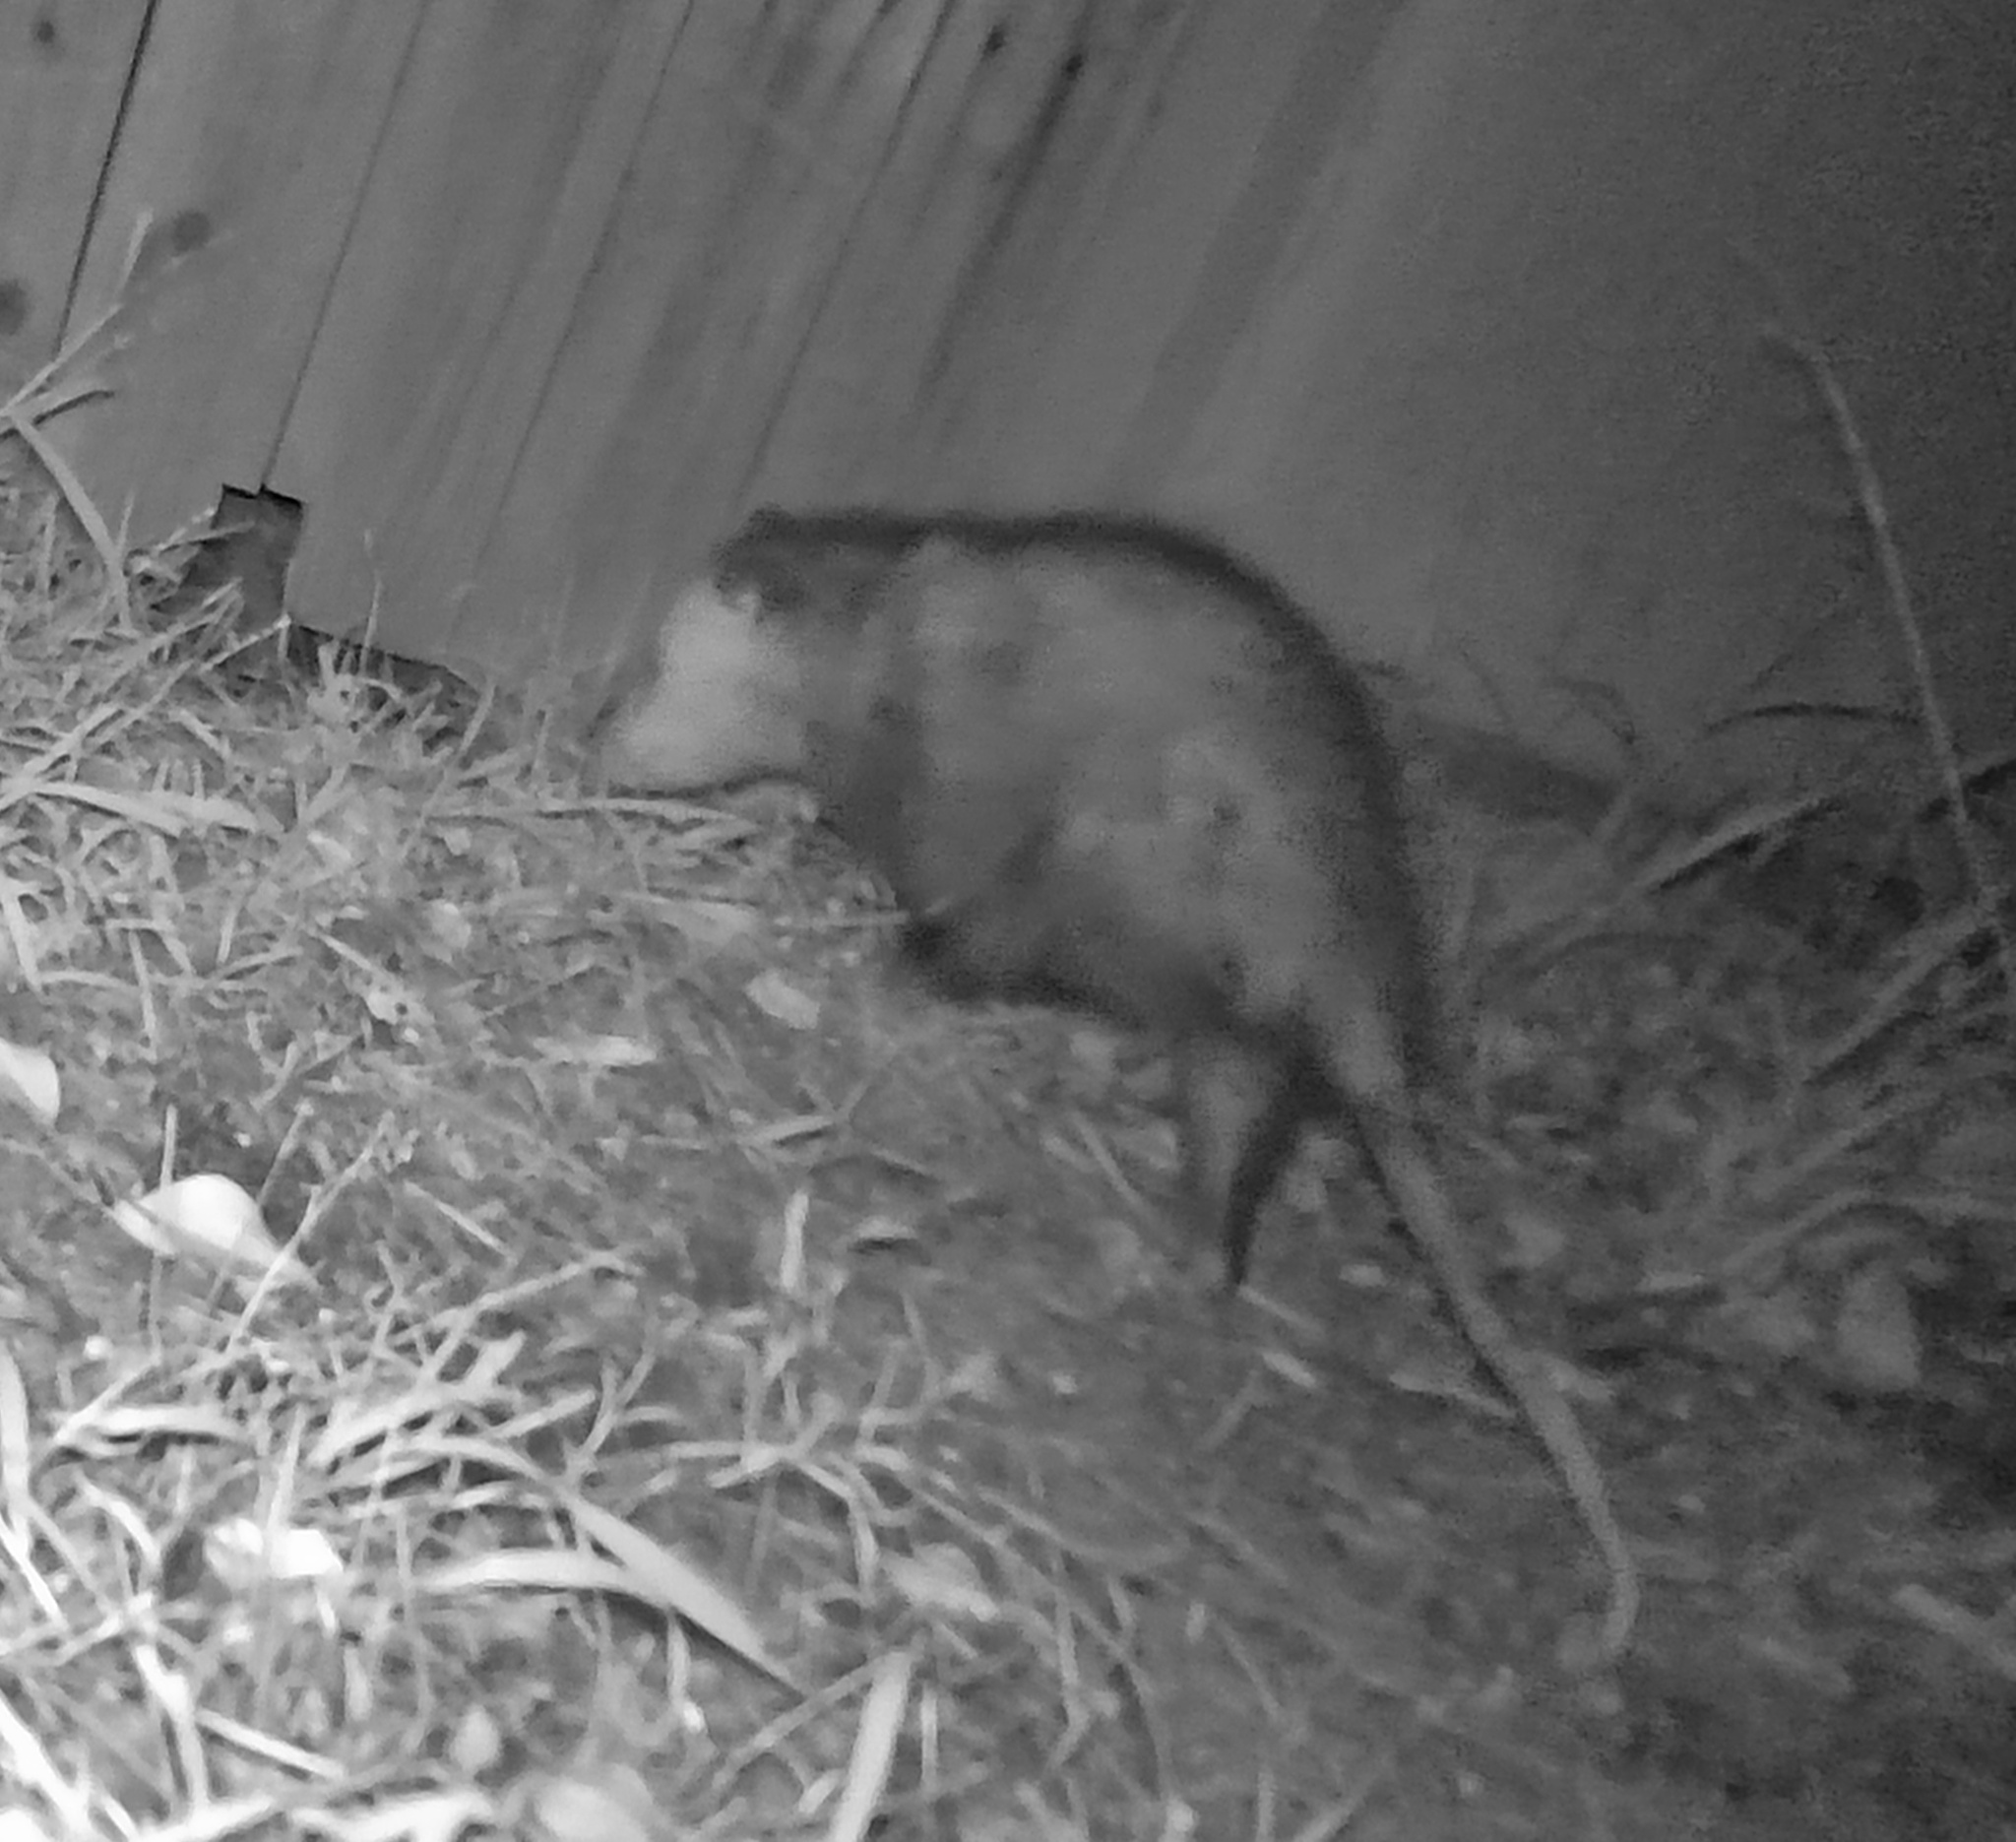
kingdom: Animalia
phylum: Chordata
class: Mammalia
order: Didelphimorphia
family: Didelphidae
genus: Didelphis
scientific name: Didelphis virginiana
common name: Virginia opossum
